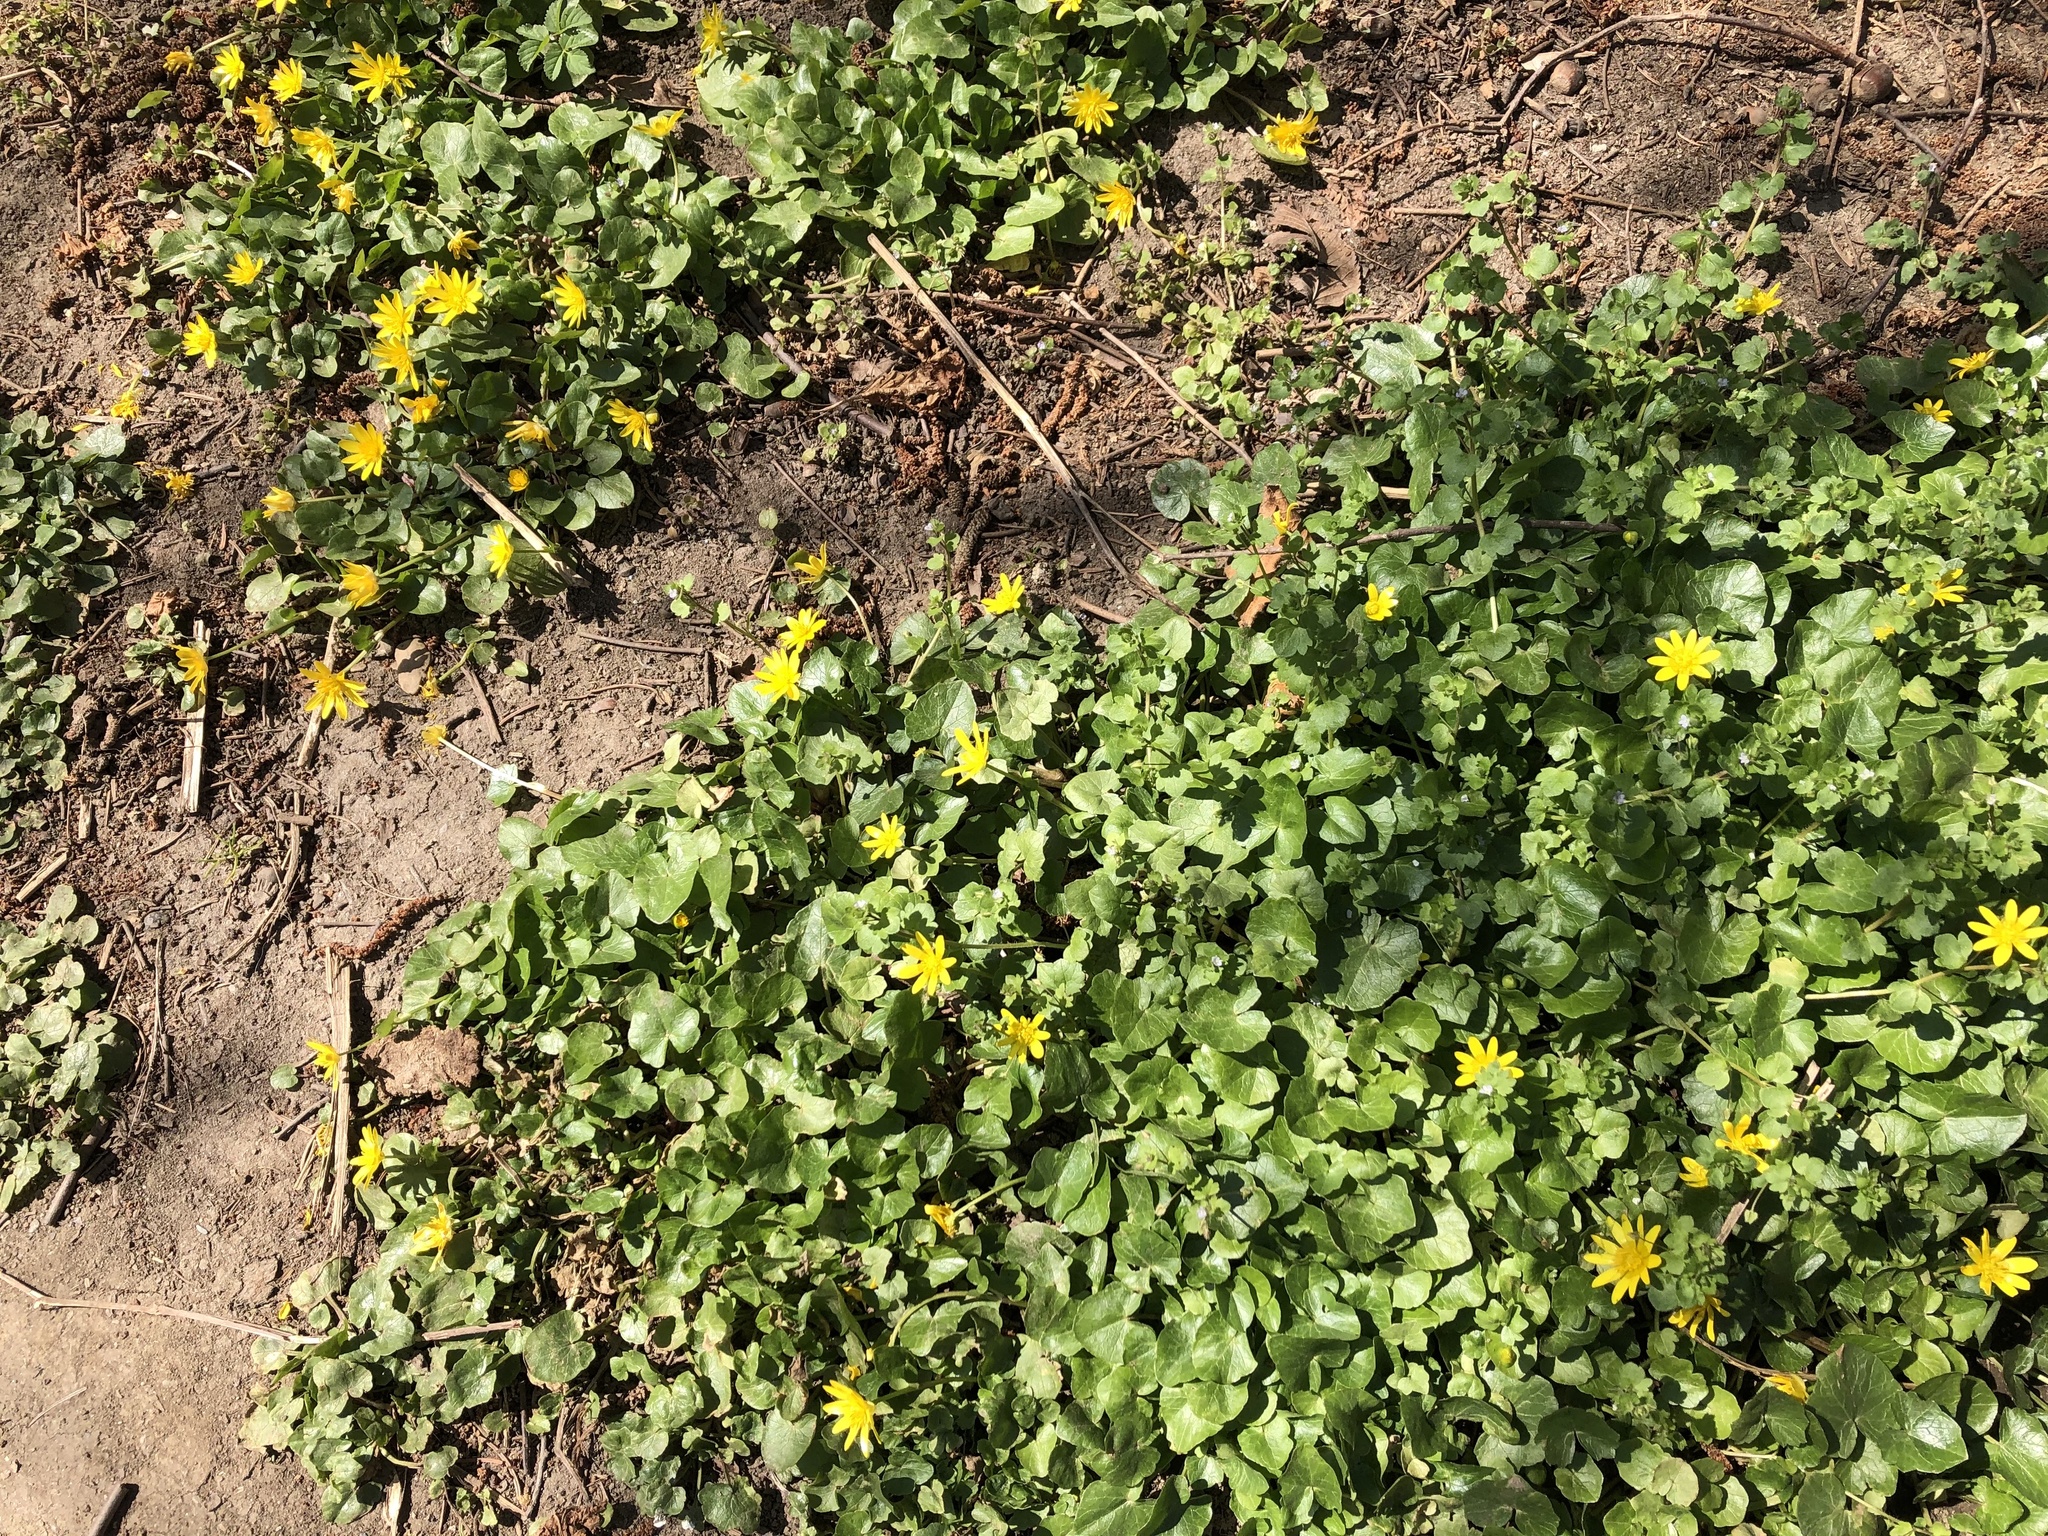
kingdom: Plantae
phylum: Tracheophyta
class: Magnoliopsida
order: Ranunculales
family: Ranunculaceae
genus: Ficaria
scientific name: Ficaria verna
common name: Lesser celandine
